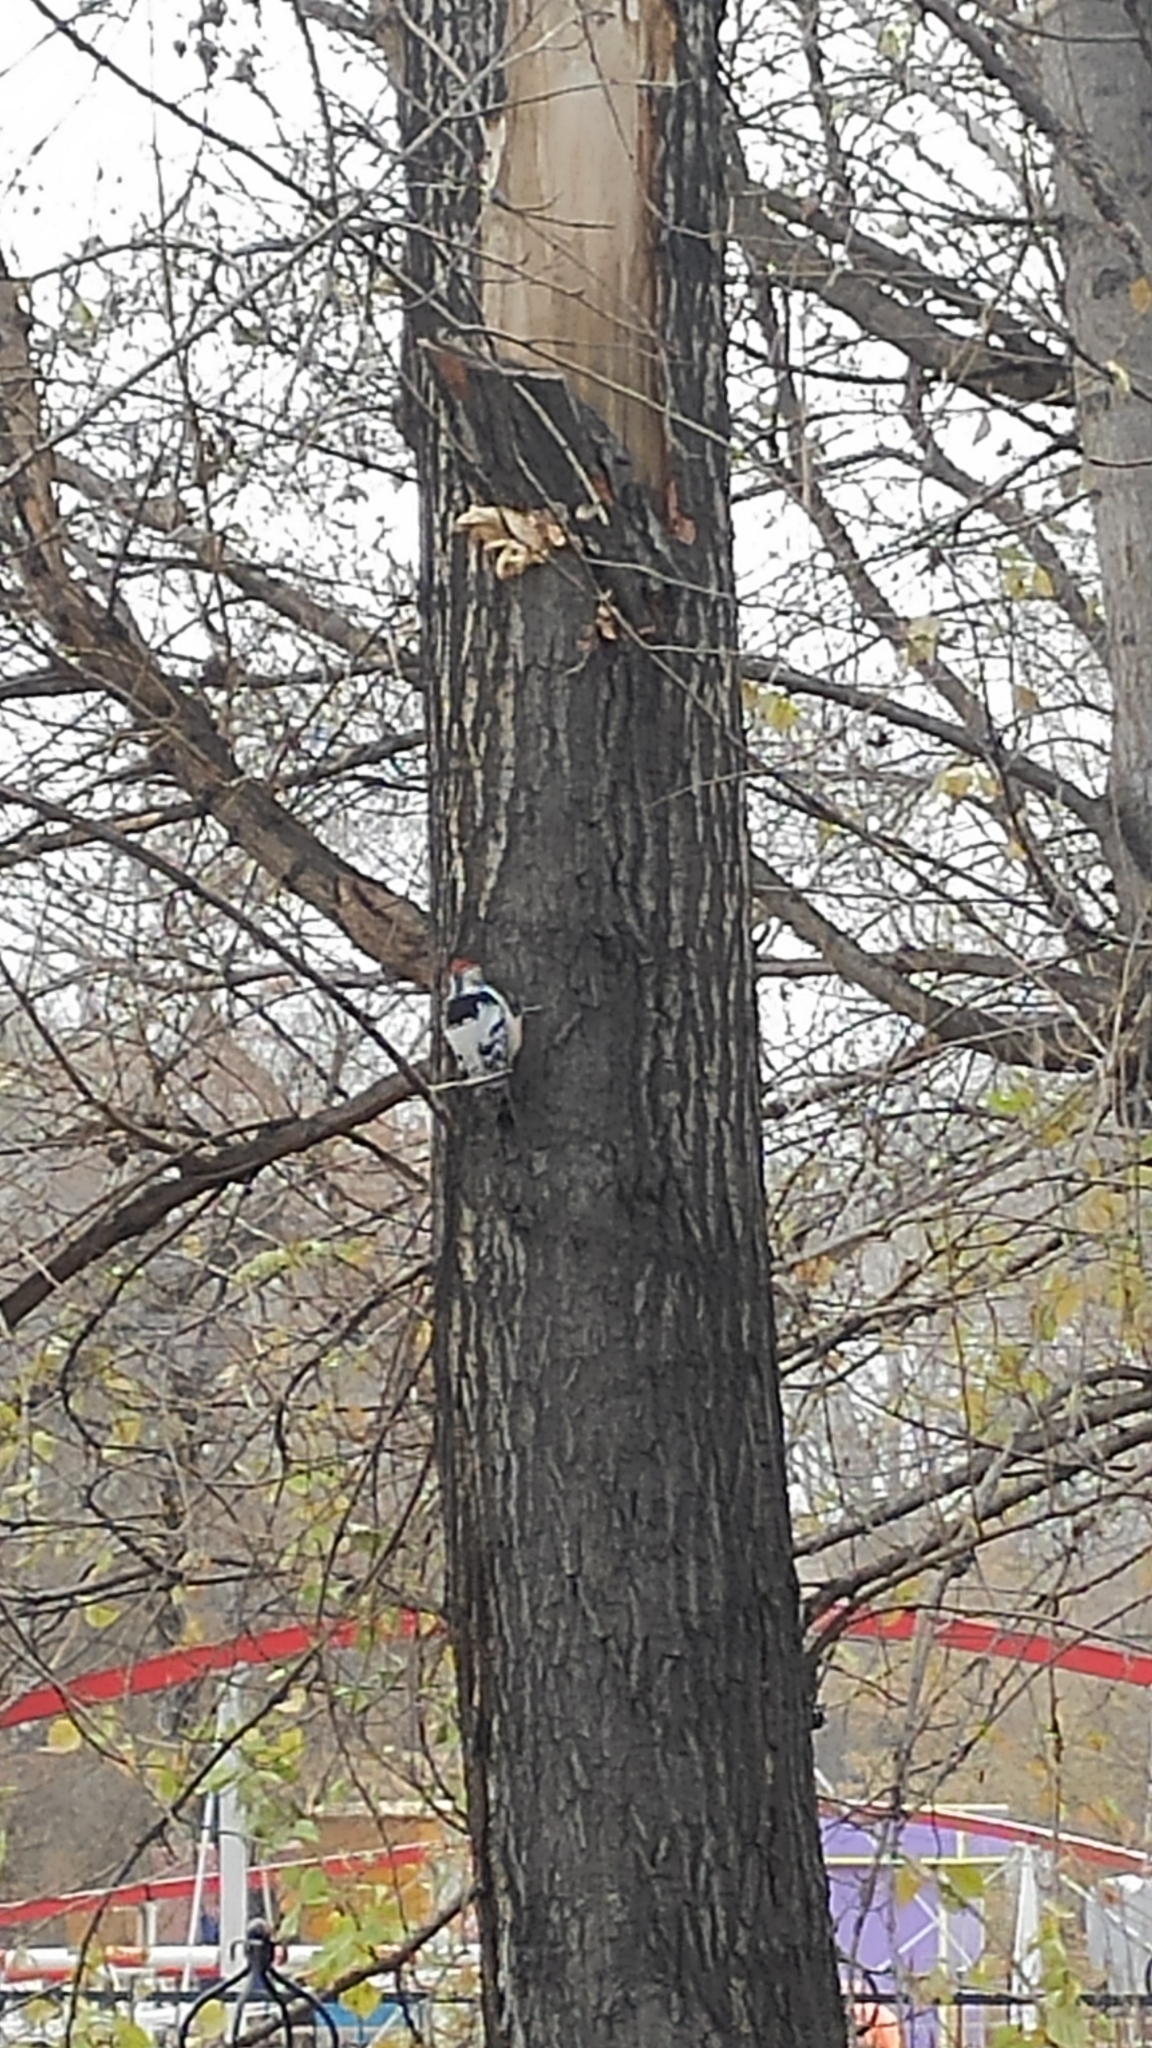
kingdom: Animalia
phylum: Chordata
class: Aves
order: Piciformes
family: Picidae
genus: Dendrocopos
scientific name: Dendrocopos leucotos
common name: White-backed woodpecker
